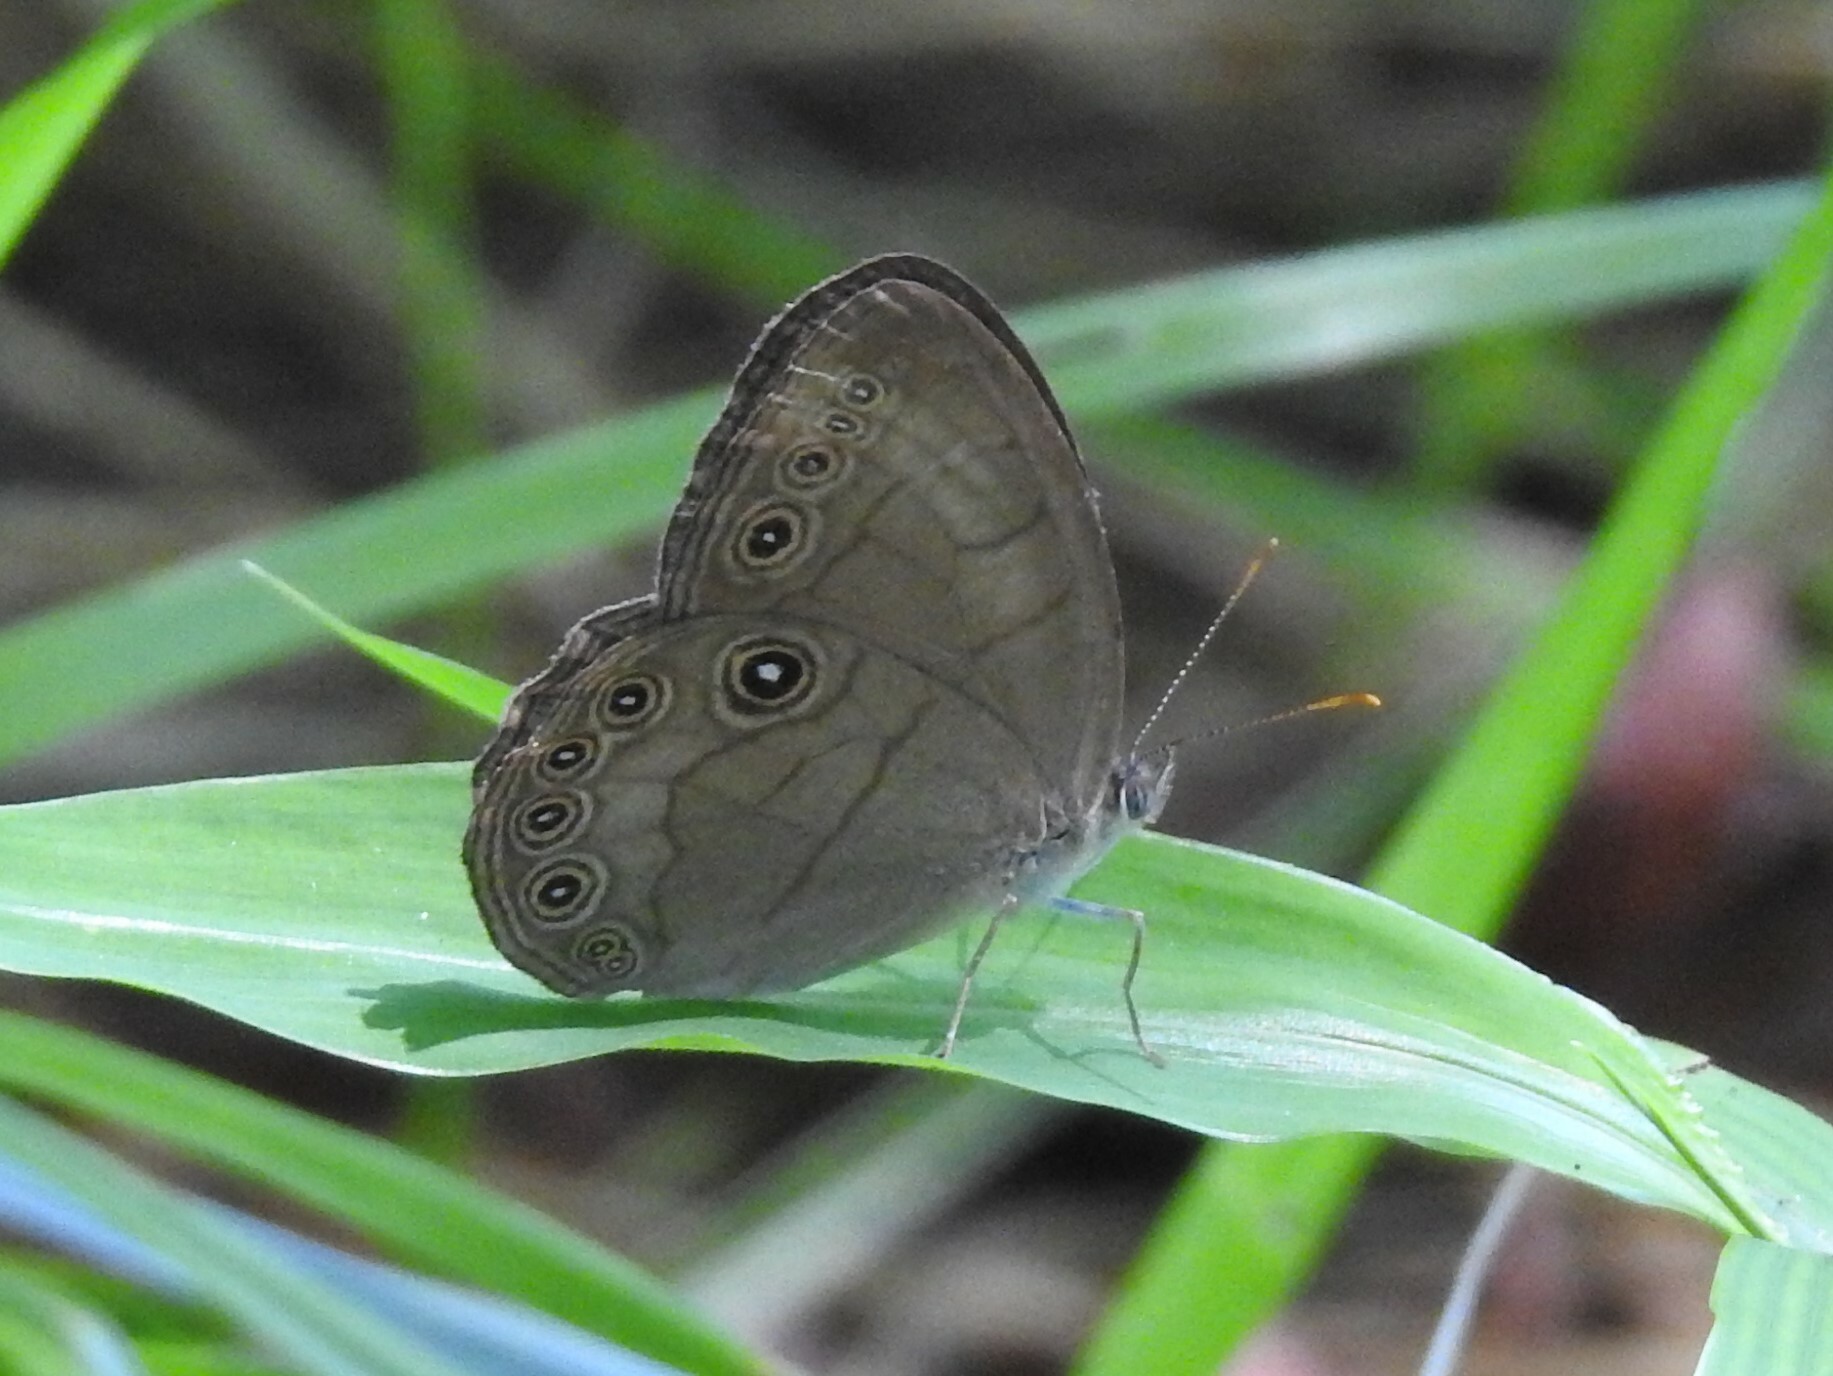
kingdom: Animalia
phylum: Arthropoda
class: Insecta
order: Lepidoptera
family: Nymphalidae
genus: Lethe
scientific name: Lethe eurydice
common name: Eyed brown
